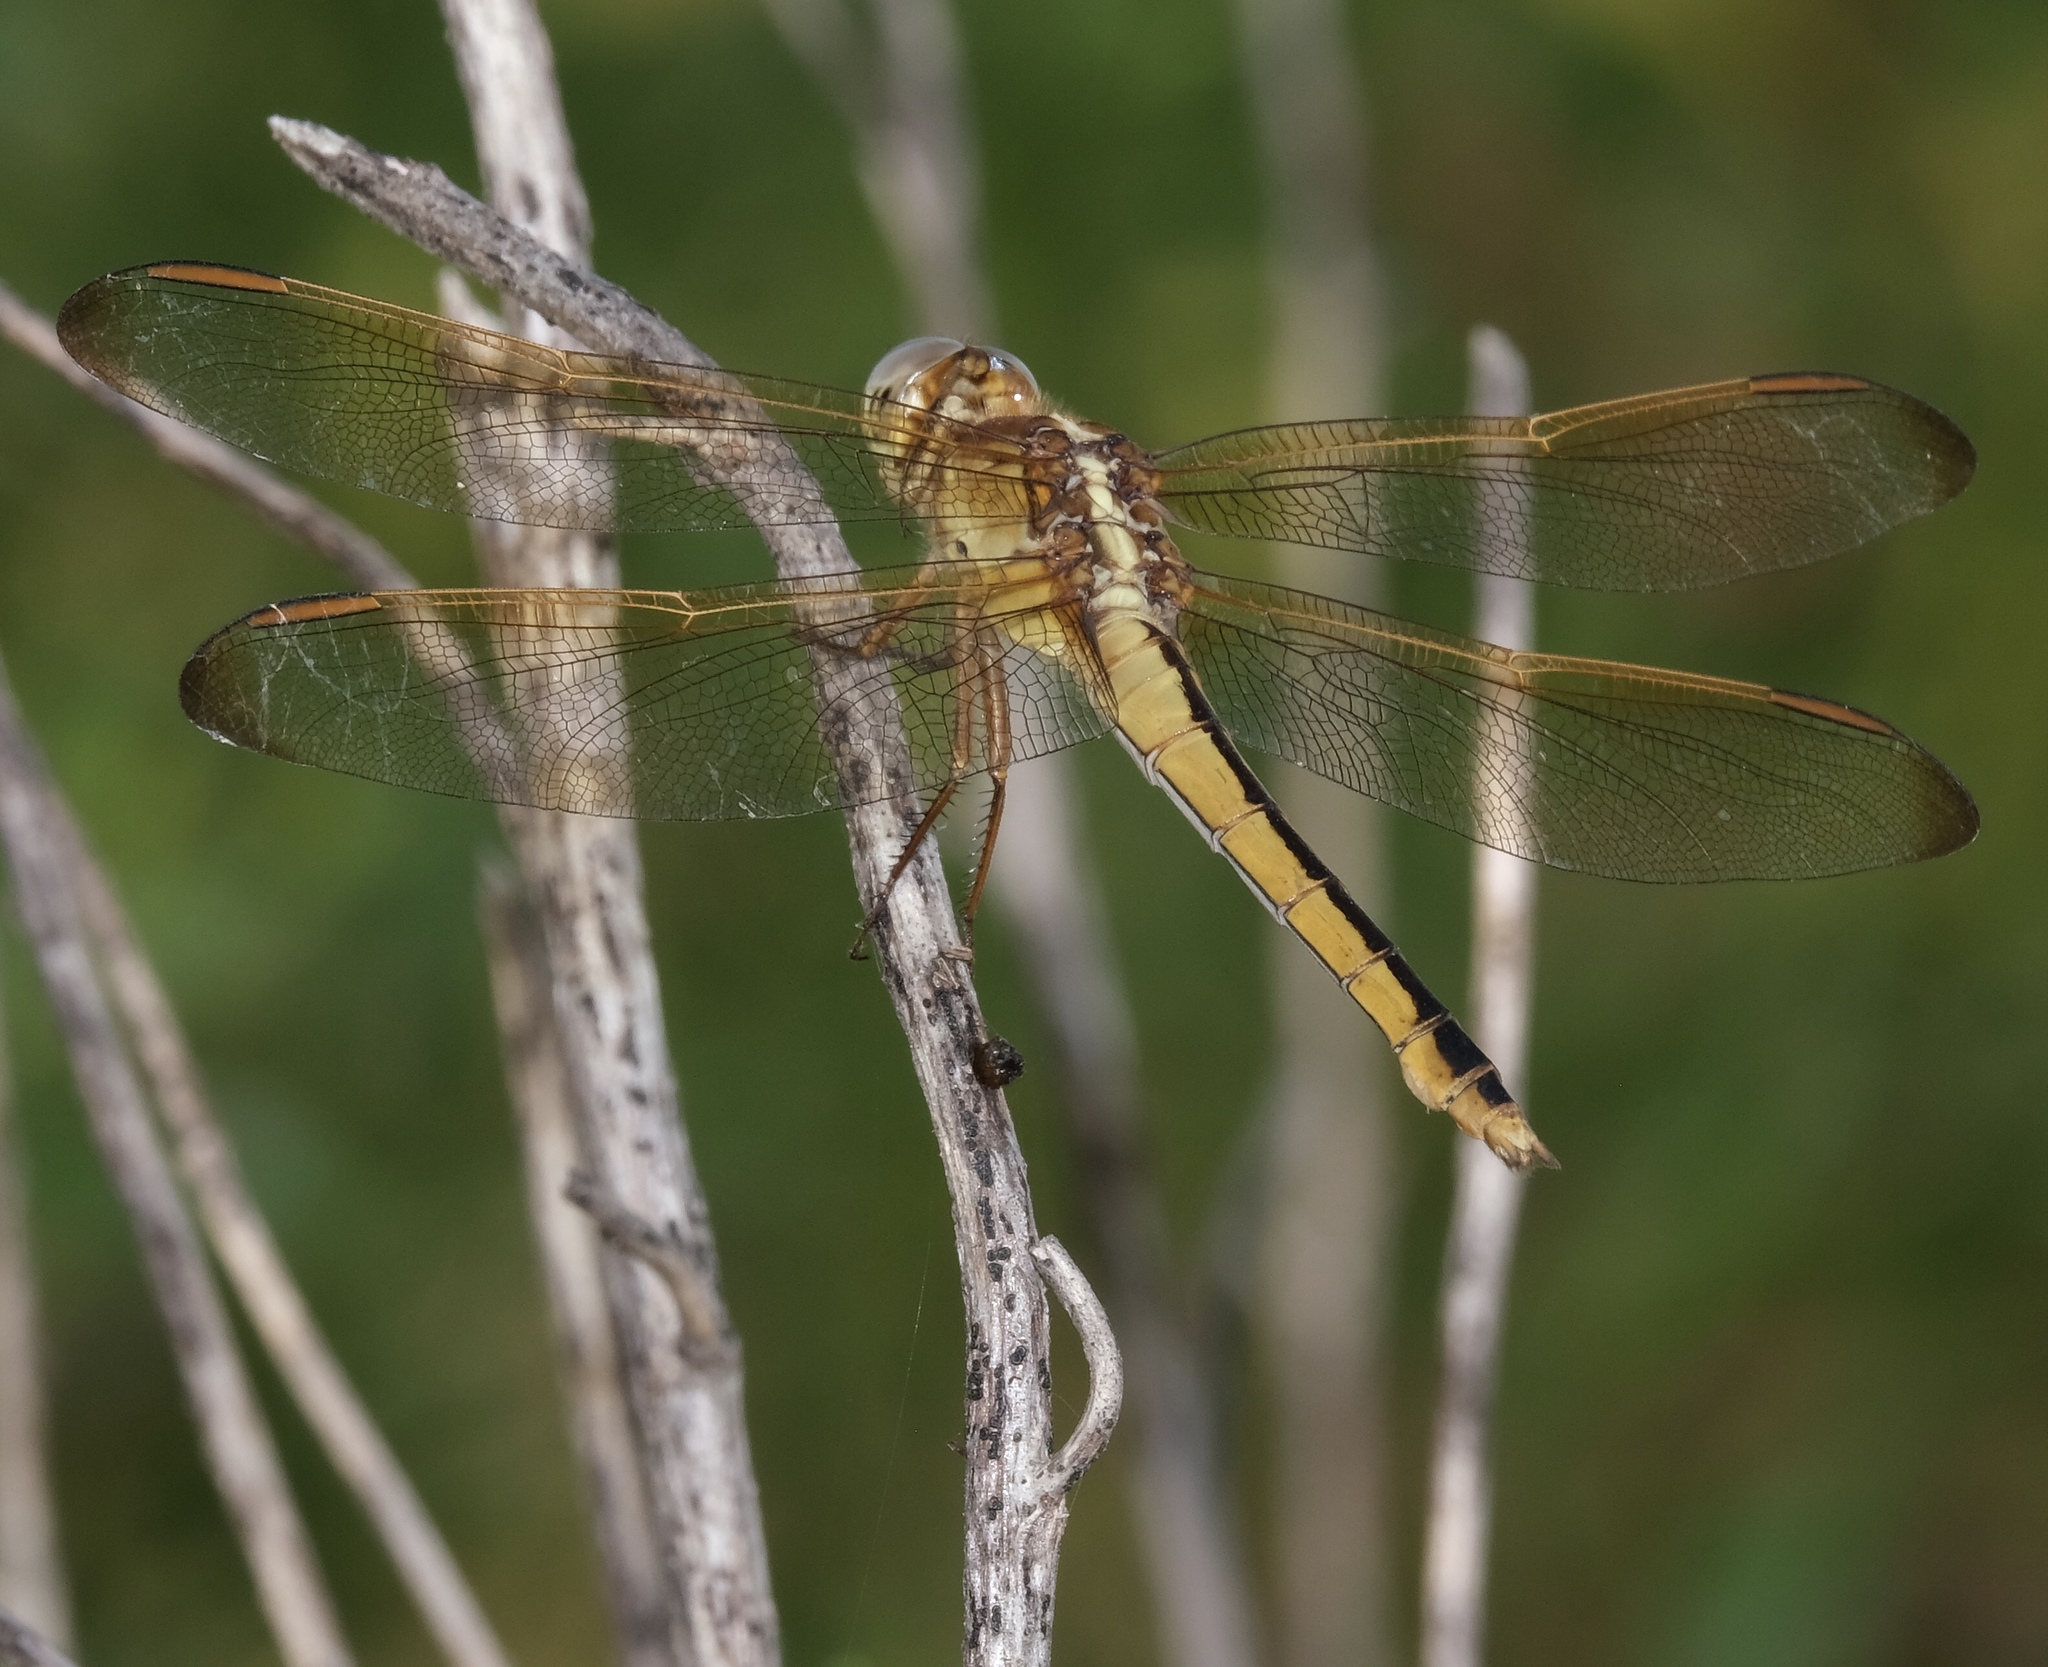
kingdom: Animalia
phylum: Arthropoda
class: Insecta
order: Odonata
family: Libellulidae
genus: Libellula
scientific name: Libellula needhami
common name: Needham's skimmer
